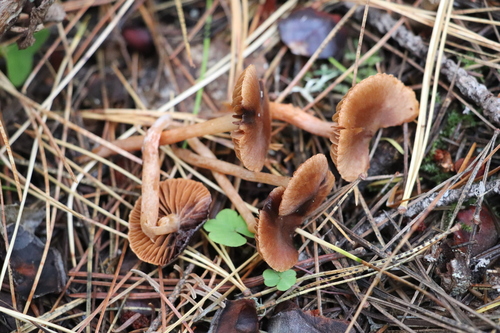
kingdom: Fungi
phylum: Basidiomycota
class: Agaricomycetes
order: Agaricales
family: Cortinariaceae
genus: Cortinarius
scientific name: Cortinarius
